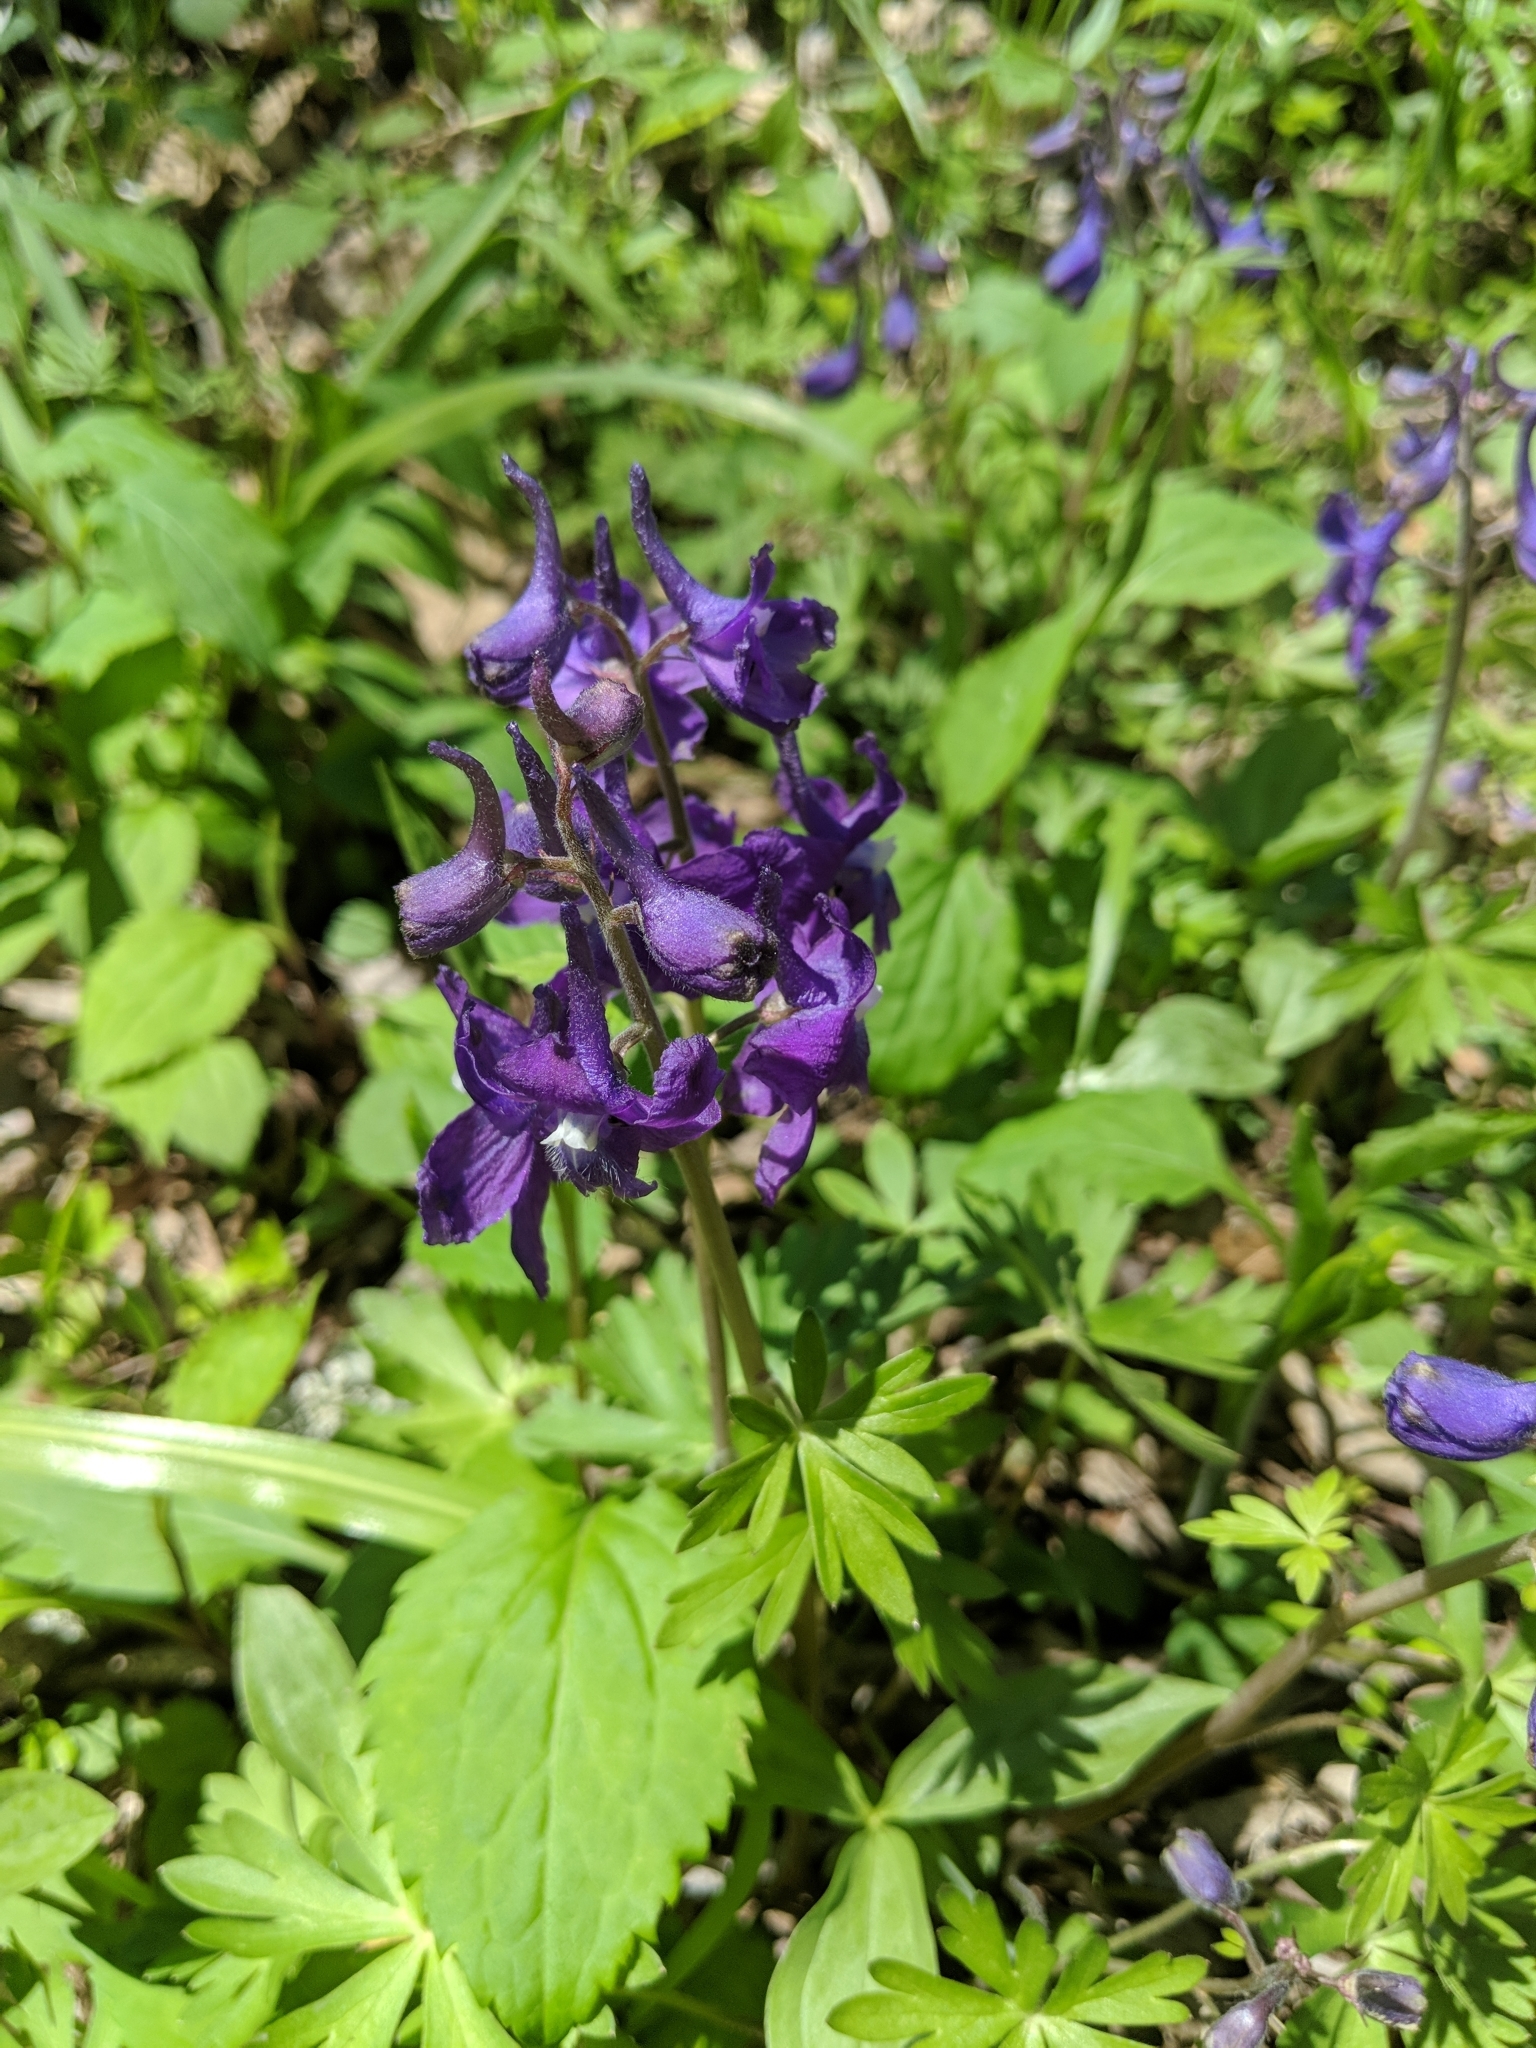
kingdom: Plantae
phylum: Tracheophyta
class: Magnoliopsida
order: Ranunculales
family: Ranunculaceae
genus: Delphinium
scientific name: Delphinium tricorne
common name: Dwarf larkspur
